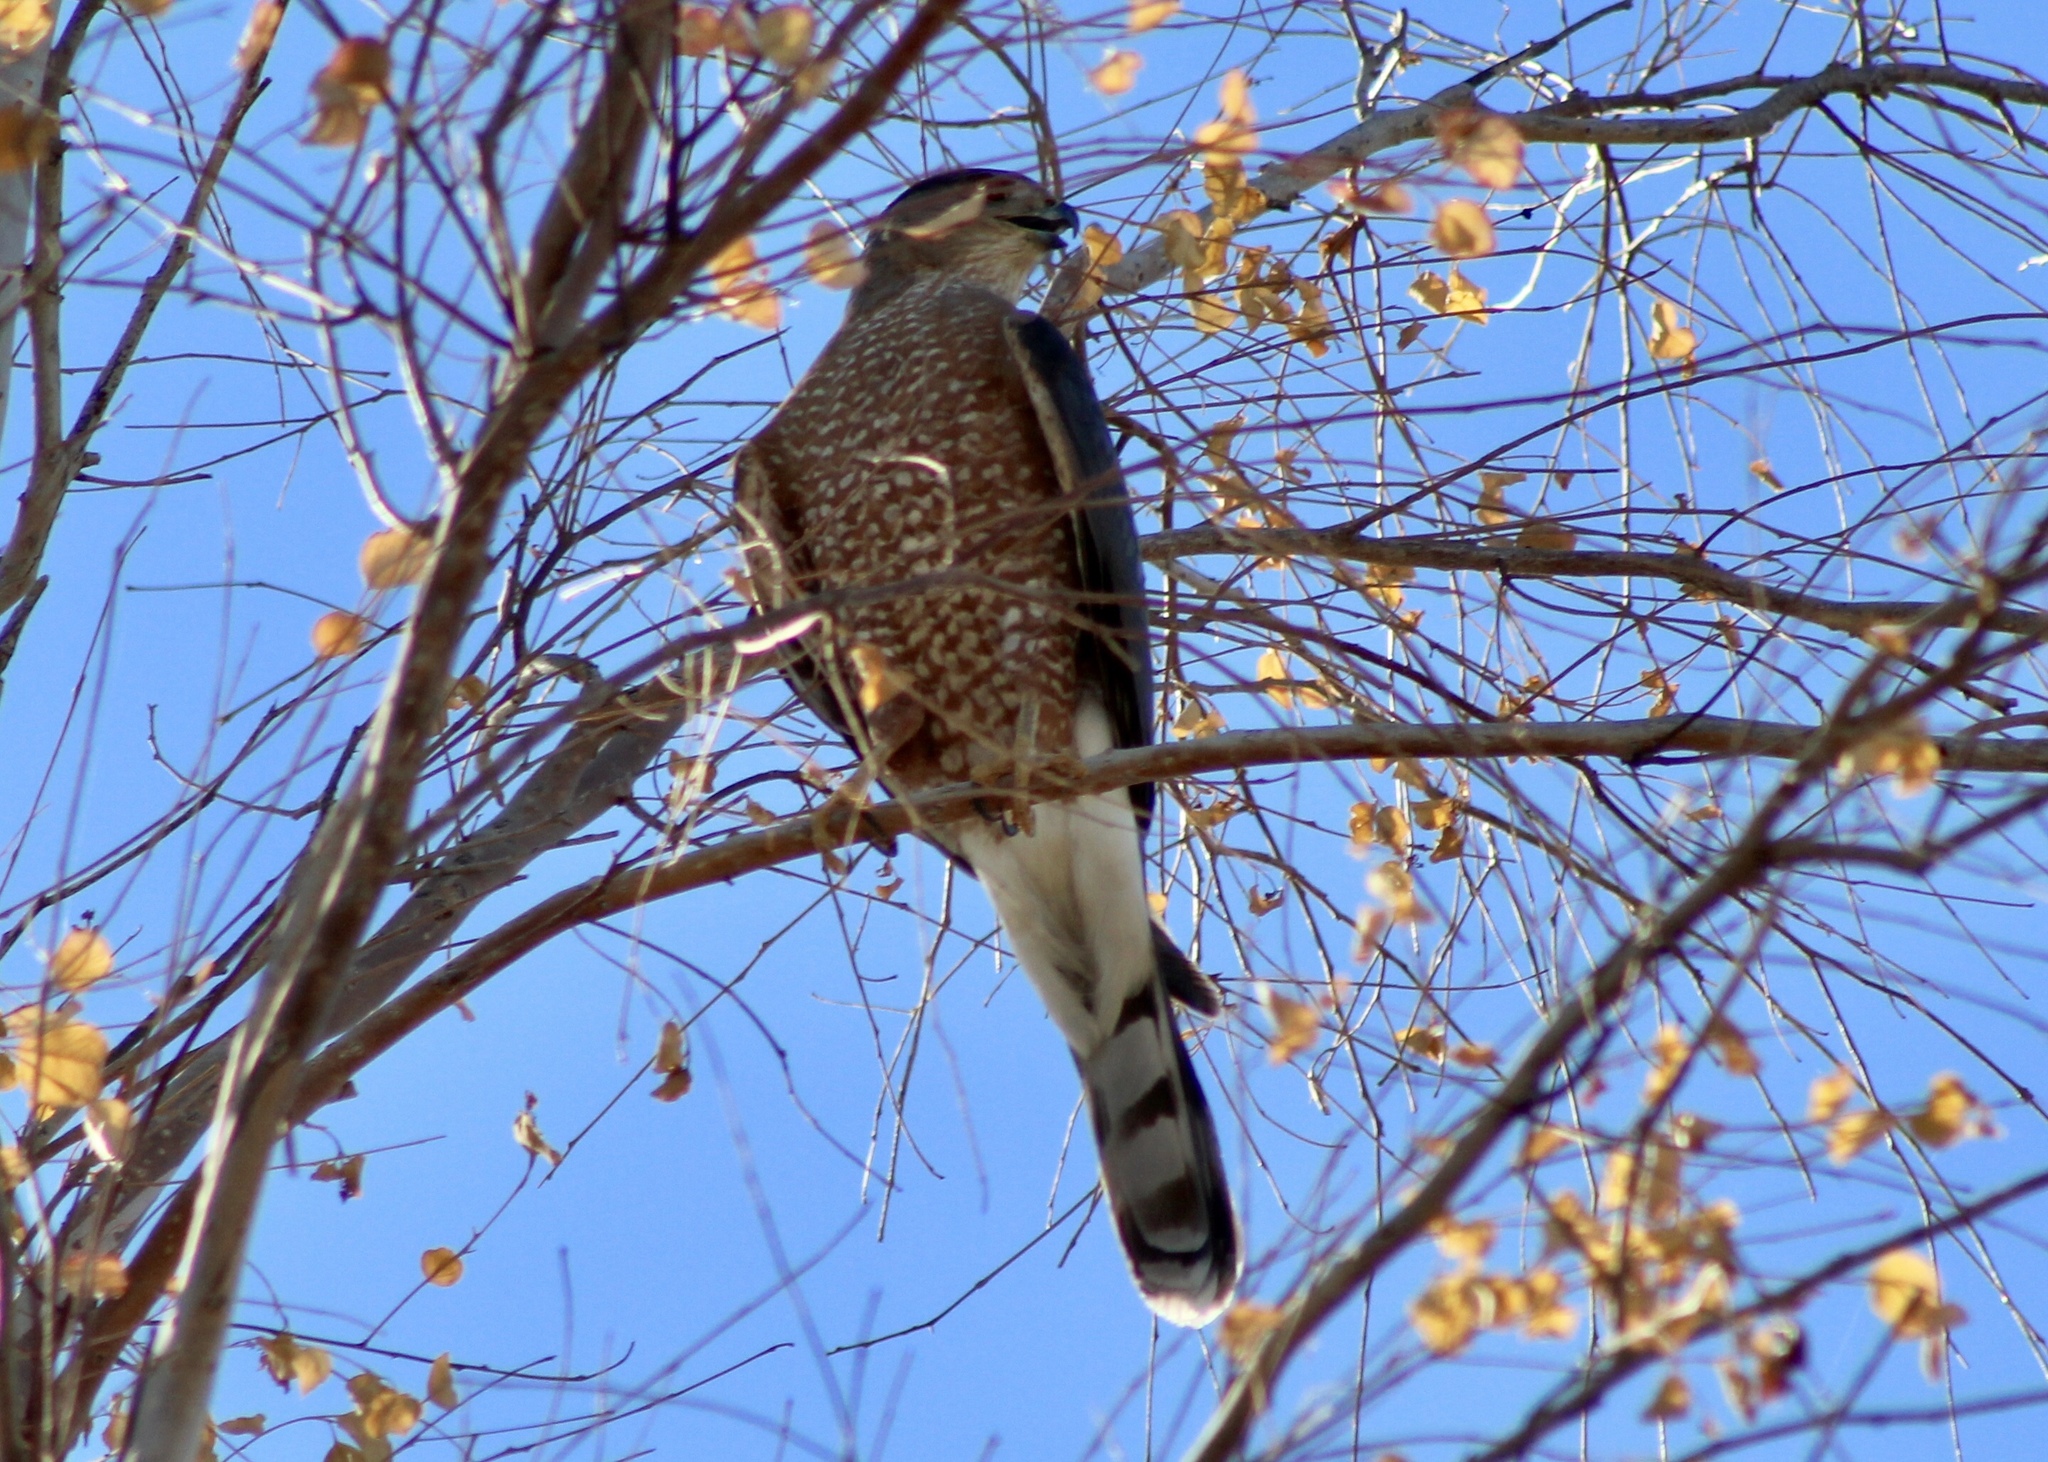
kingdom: Animalia
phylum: Chordata
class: Aves
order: Accipitriformes
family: Accipitridae
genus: Accipiter
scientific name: Accipiter cooperii
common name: Cooper's hawk
